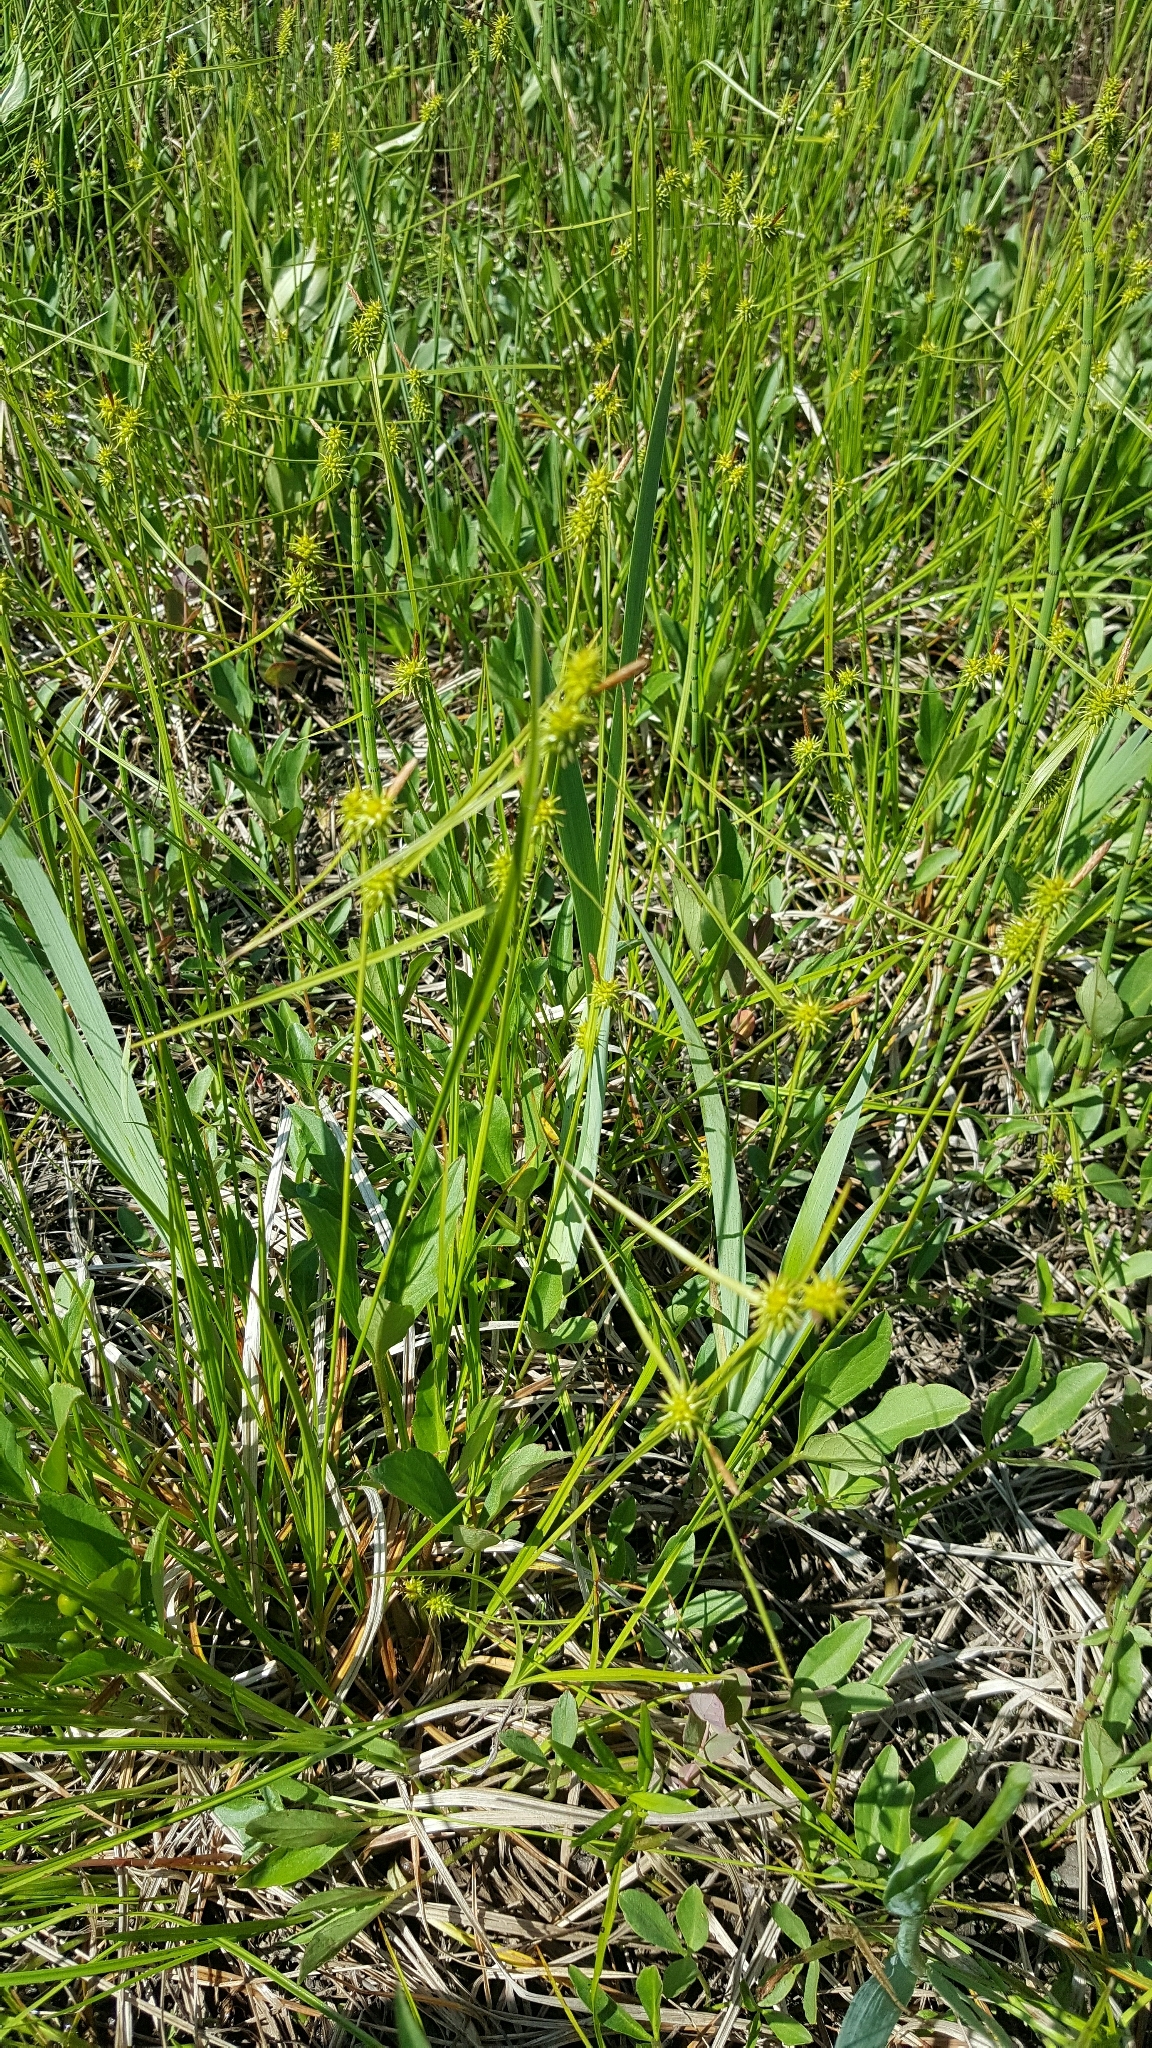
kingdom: Plantae
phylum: Tracheophyta
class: Liliopsida
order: Poales
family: Cyperaceae
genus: Carex
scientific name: Carex flava
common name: Large yellow-sedge
